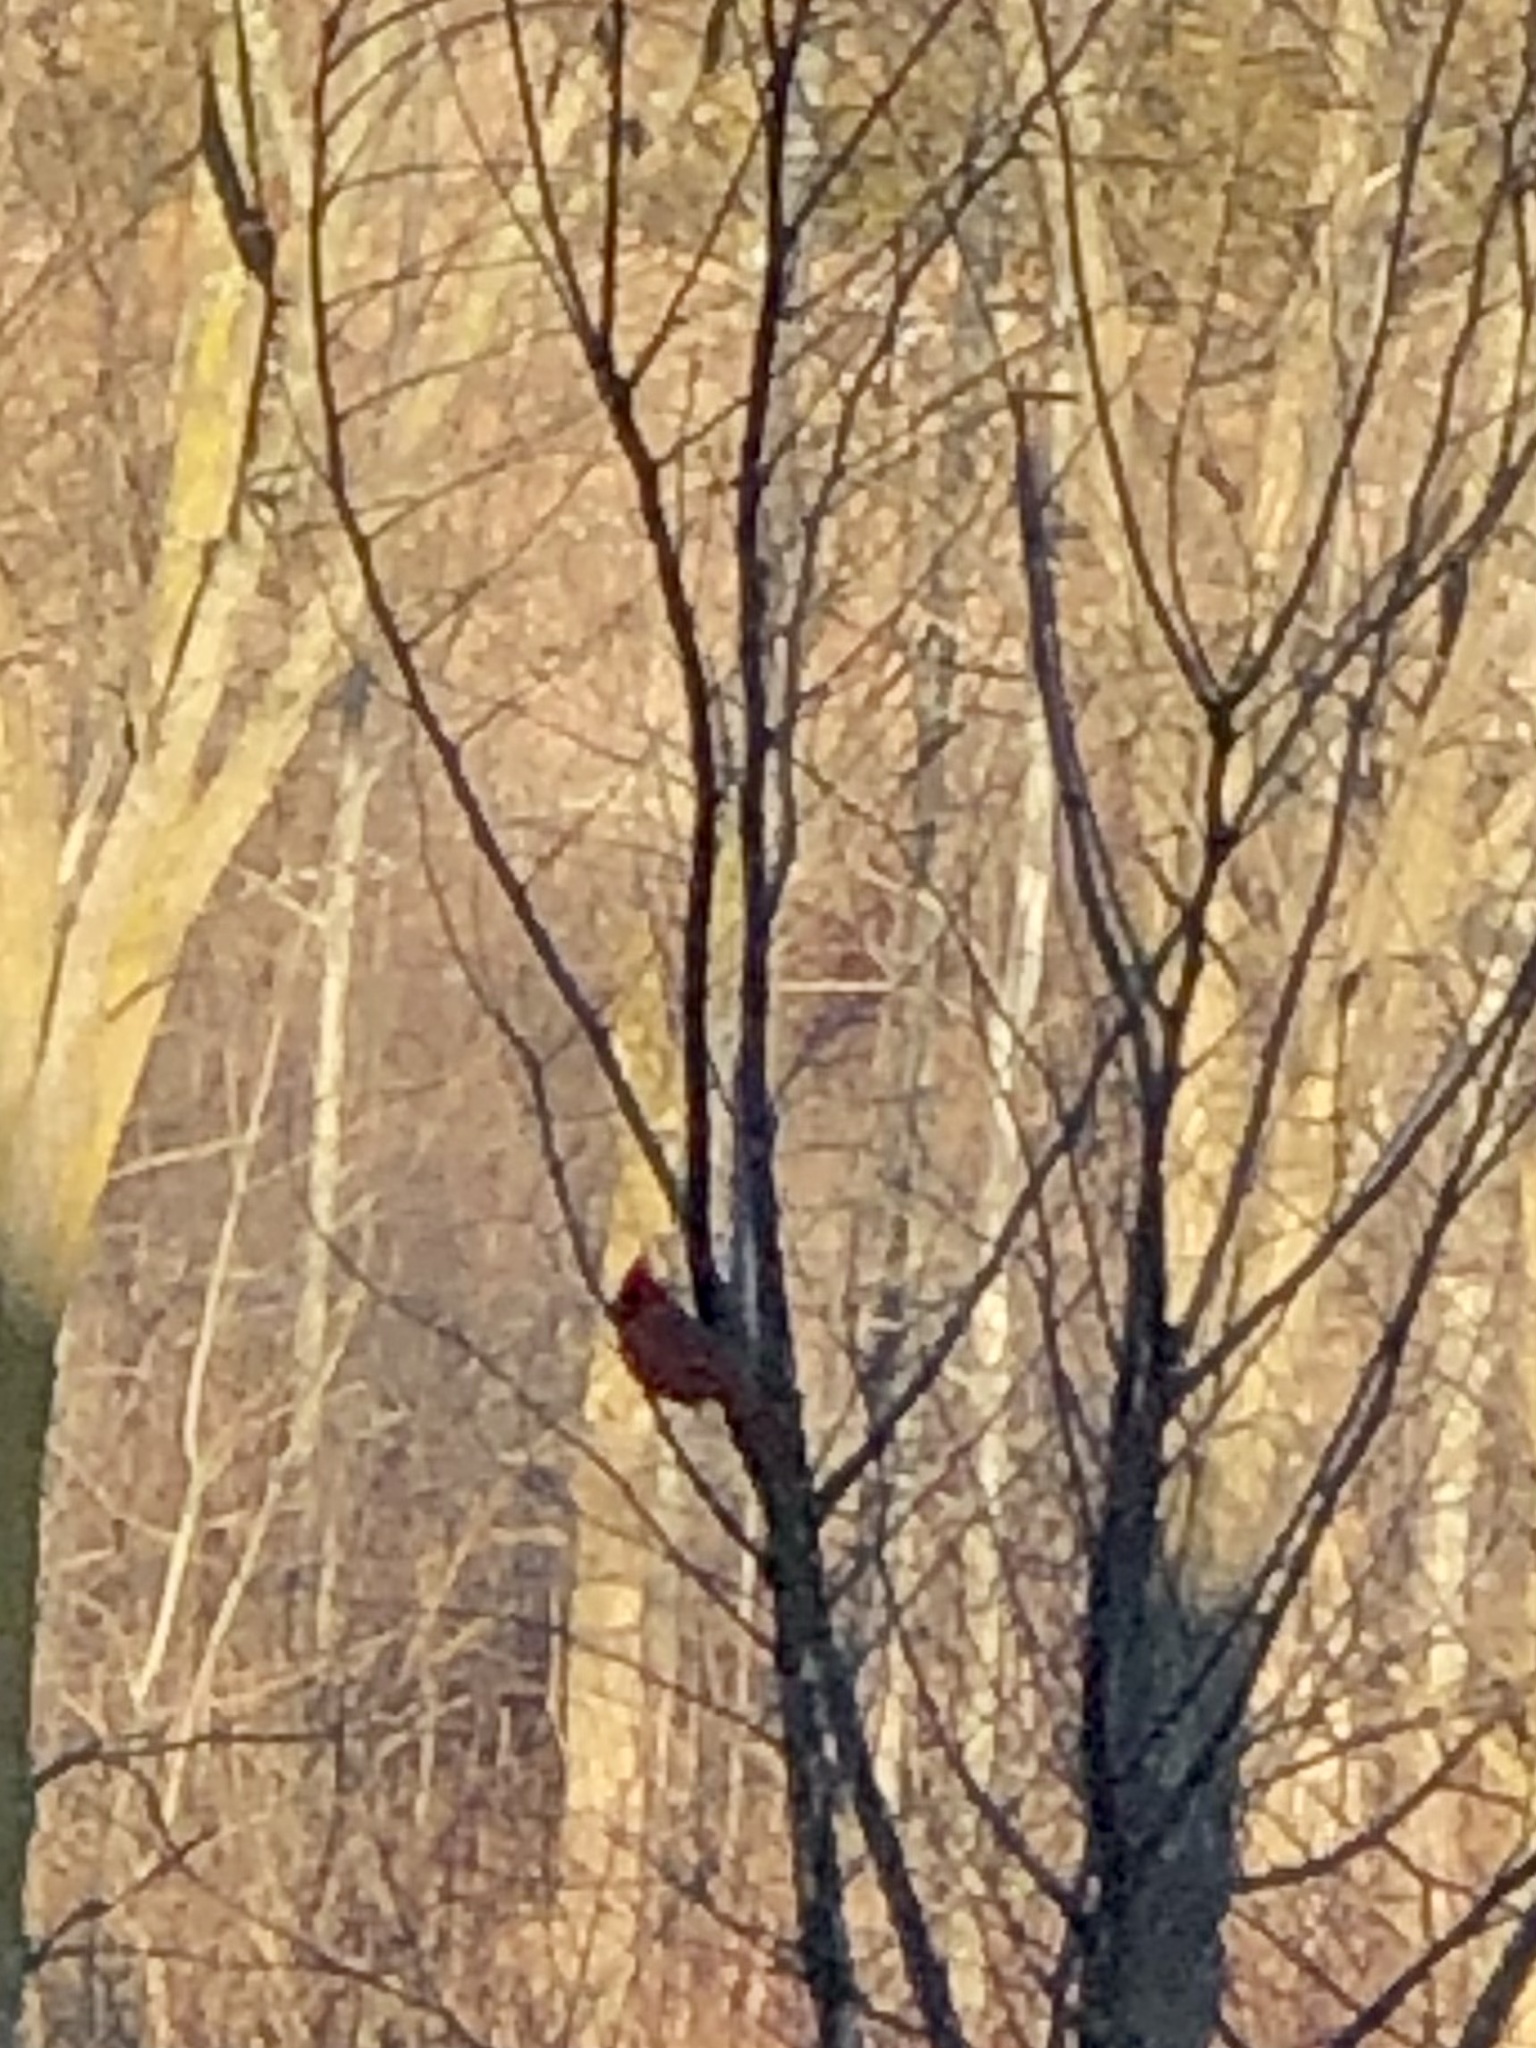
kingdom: Animalia
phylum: Chordata
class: Aves
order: Passeriformes
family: Cardinalidae
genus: Cardinalis
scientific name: Cardinalis cardinalis
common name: Northern cardinal
